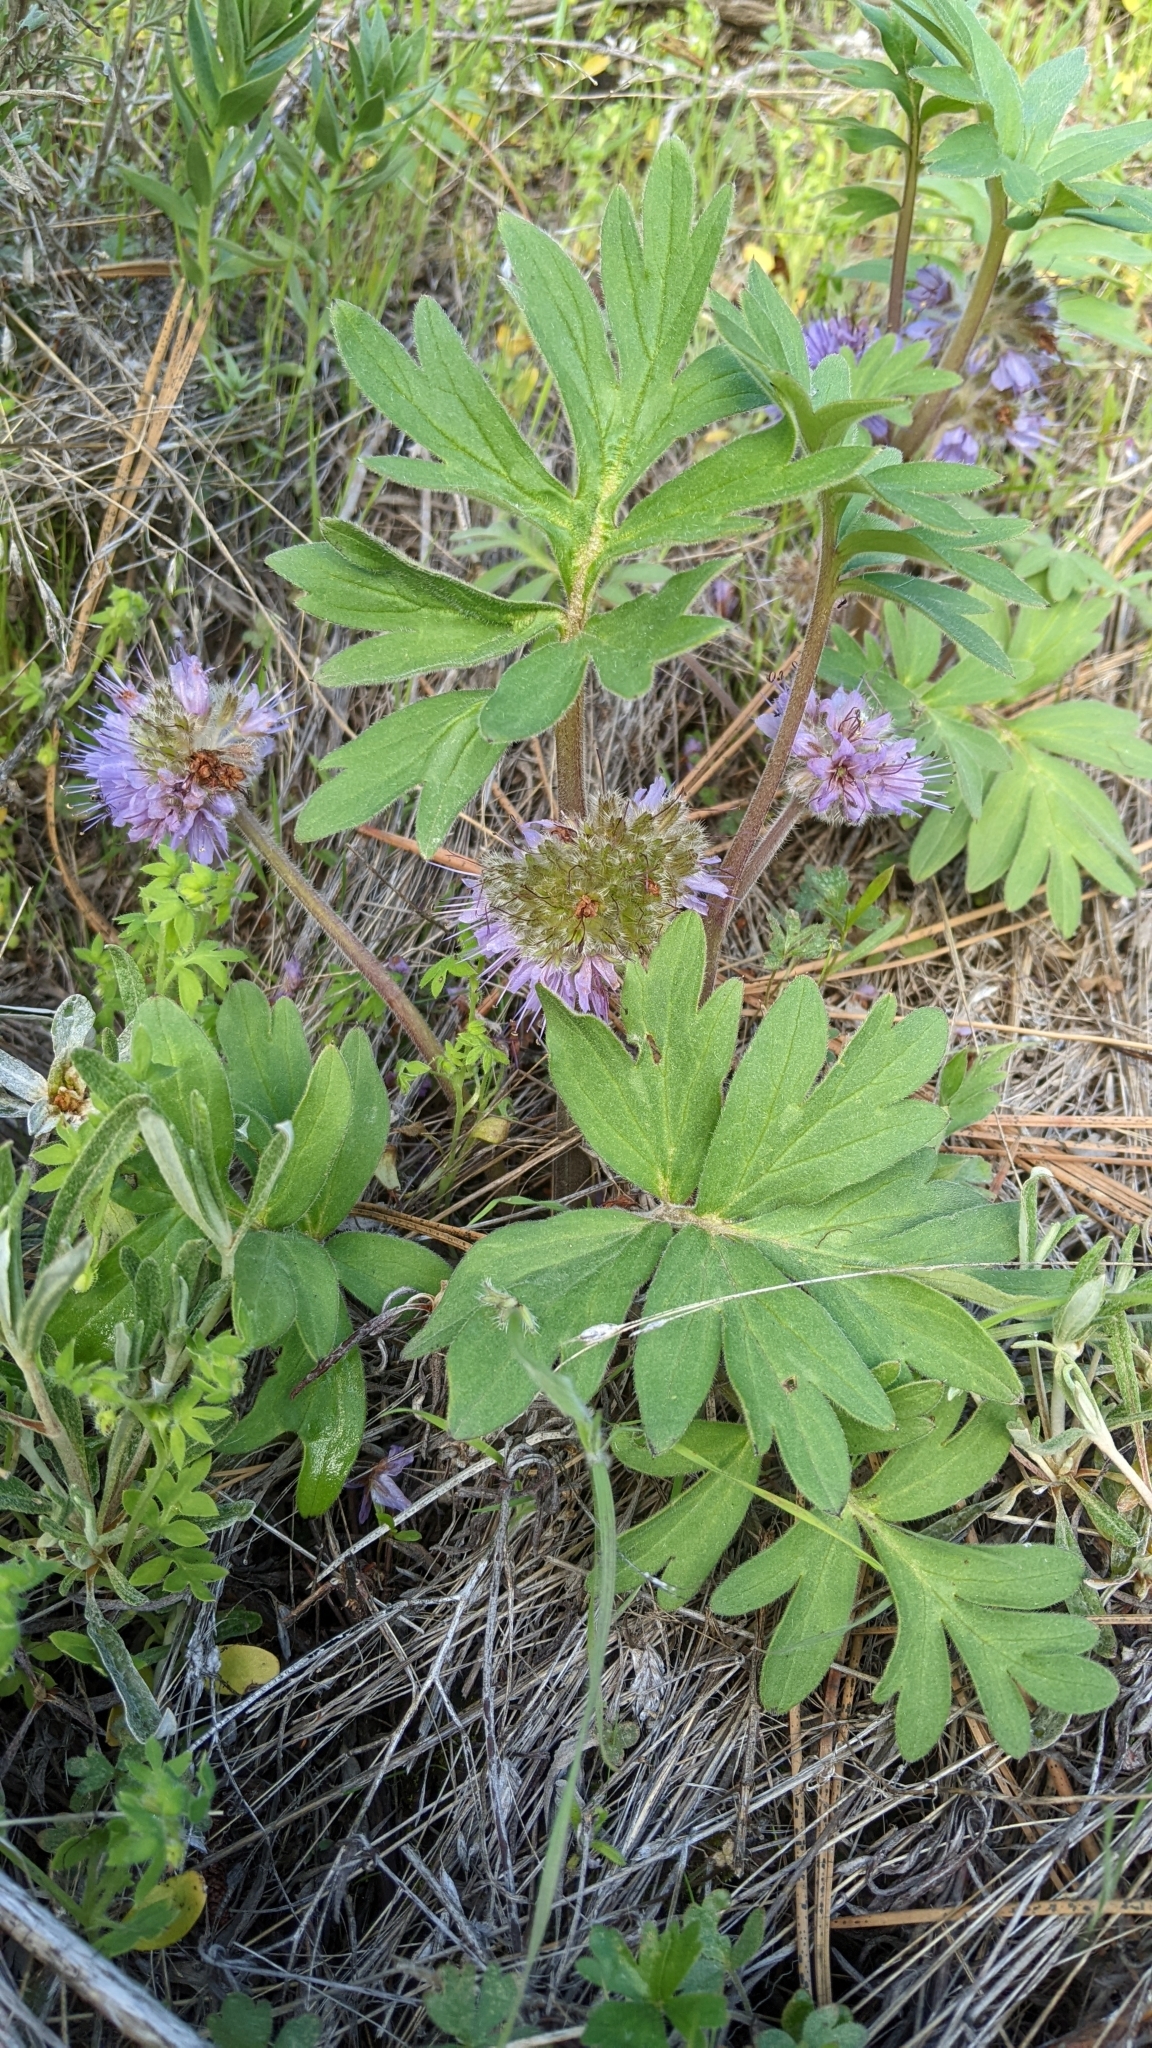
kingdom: Plantae
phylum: Tracheophyta
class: Magnoliopsida
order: Boraginales
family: Hydrophyllaceae
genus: Hydrophyllum
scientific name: Hydrophyllum capitatum
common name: Woollen-breeches
